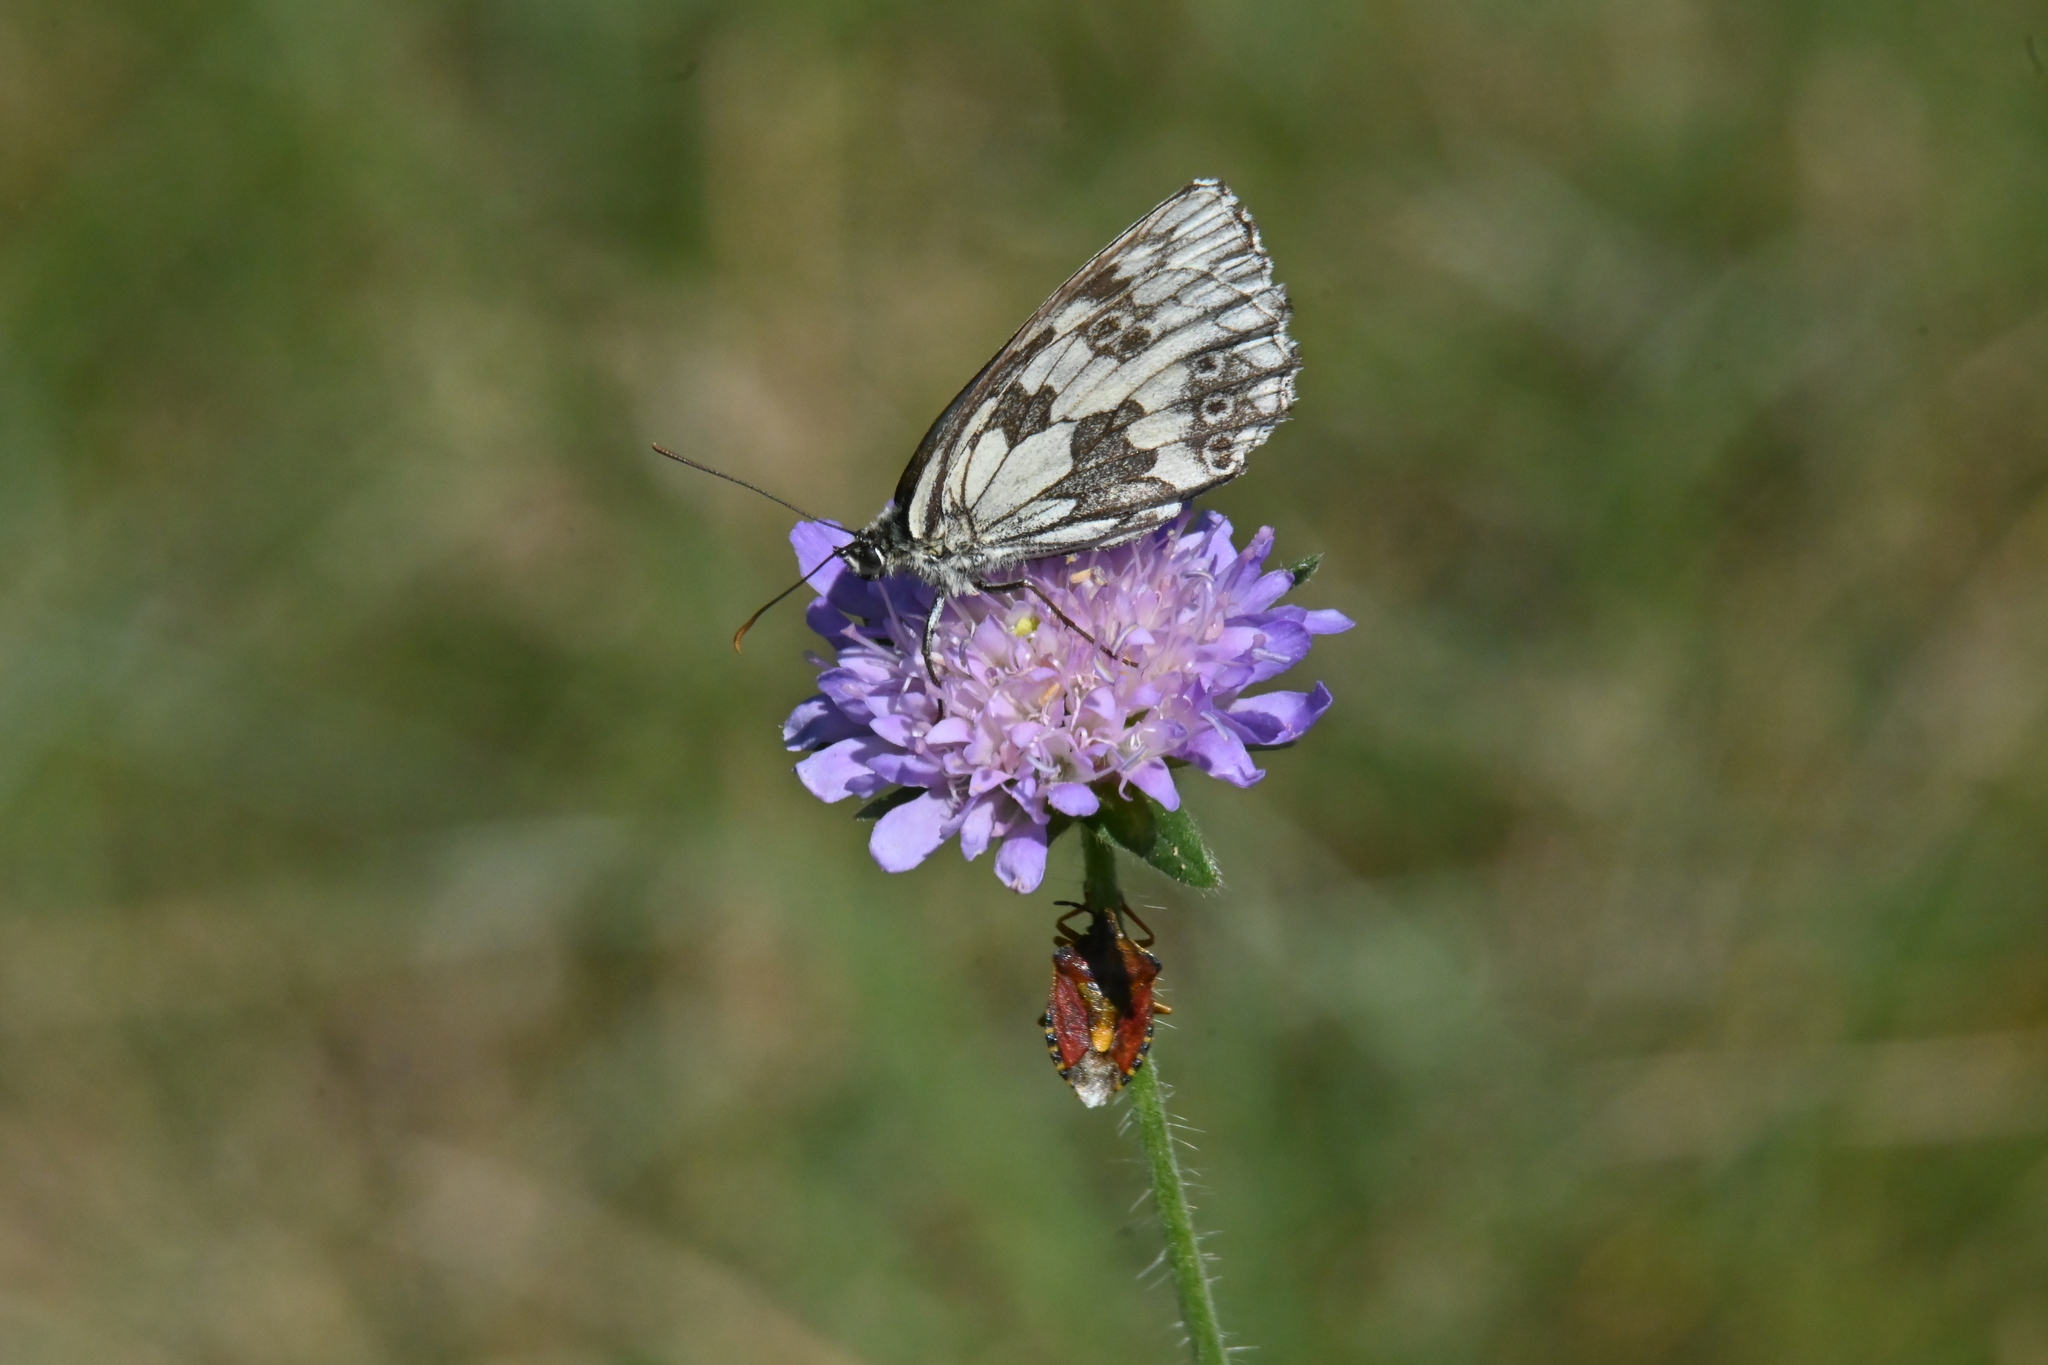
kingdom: Animalia
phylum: Arthropoda
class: Insecta
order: Lepidoptera
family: Nymphalidae
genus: Melanargia
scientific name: Melanargia galathea
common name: Marbled white
